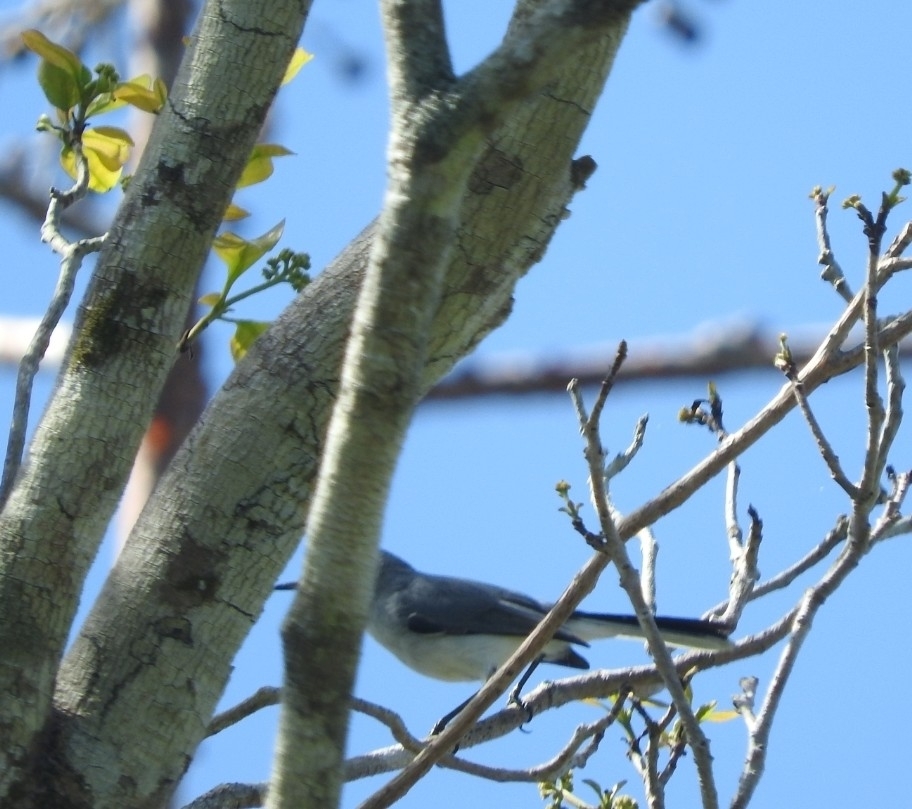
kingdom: Animalia
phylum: Chordata
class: Aves
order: Passeriformes
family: Polioptilidae
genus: Polioptila
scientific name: Polioptila caerulea
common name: Blue-gray gnatcatcher
